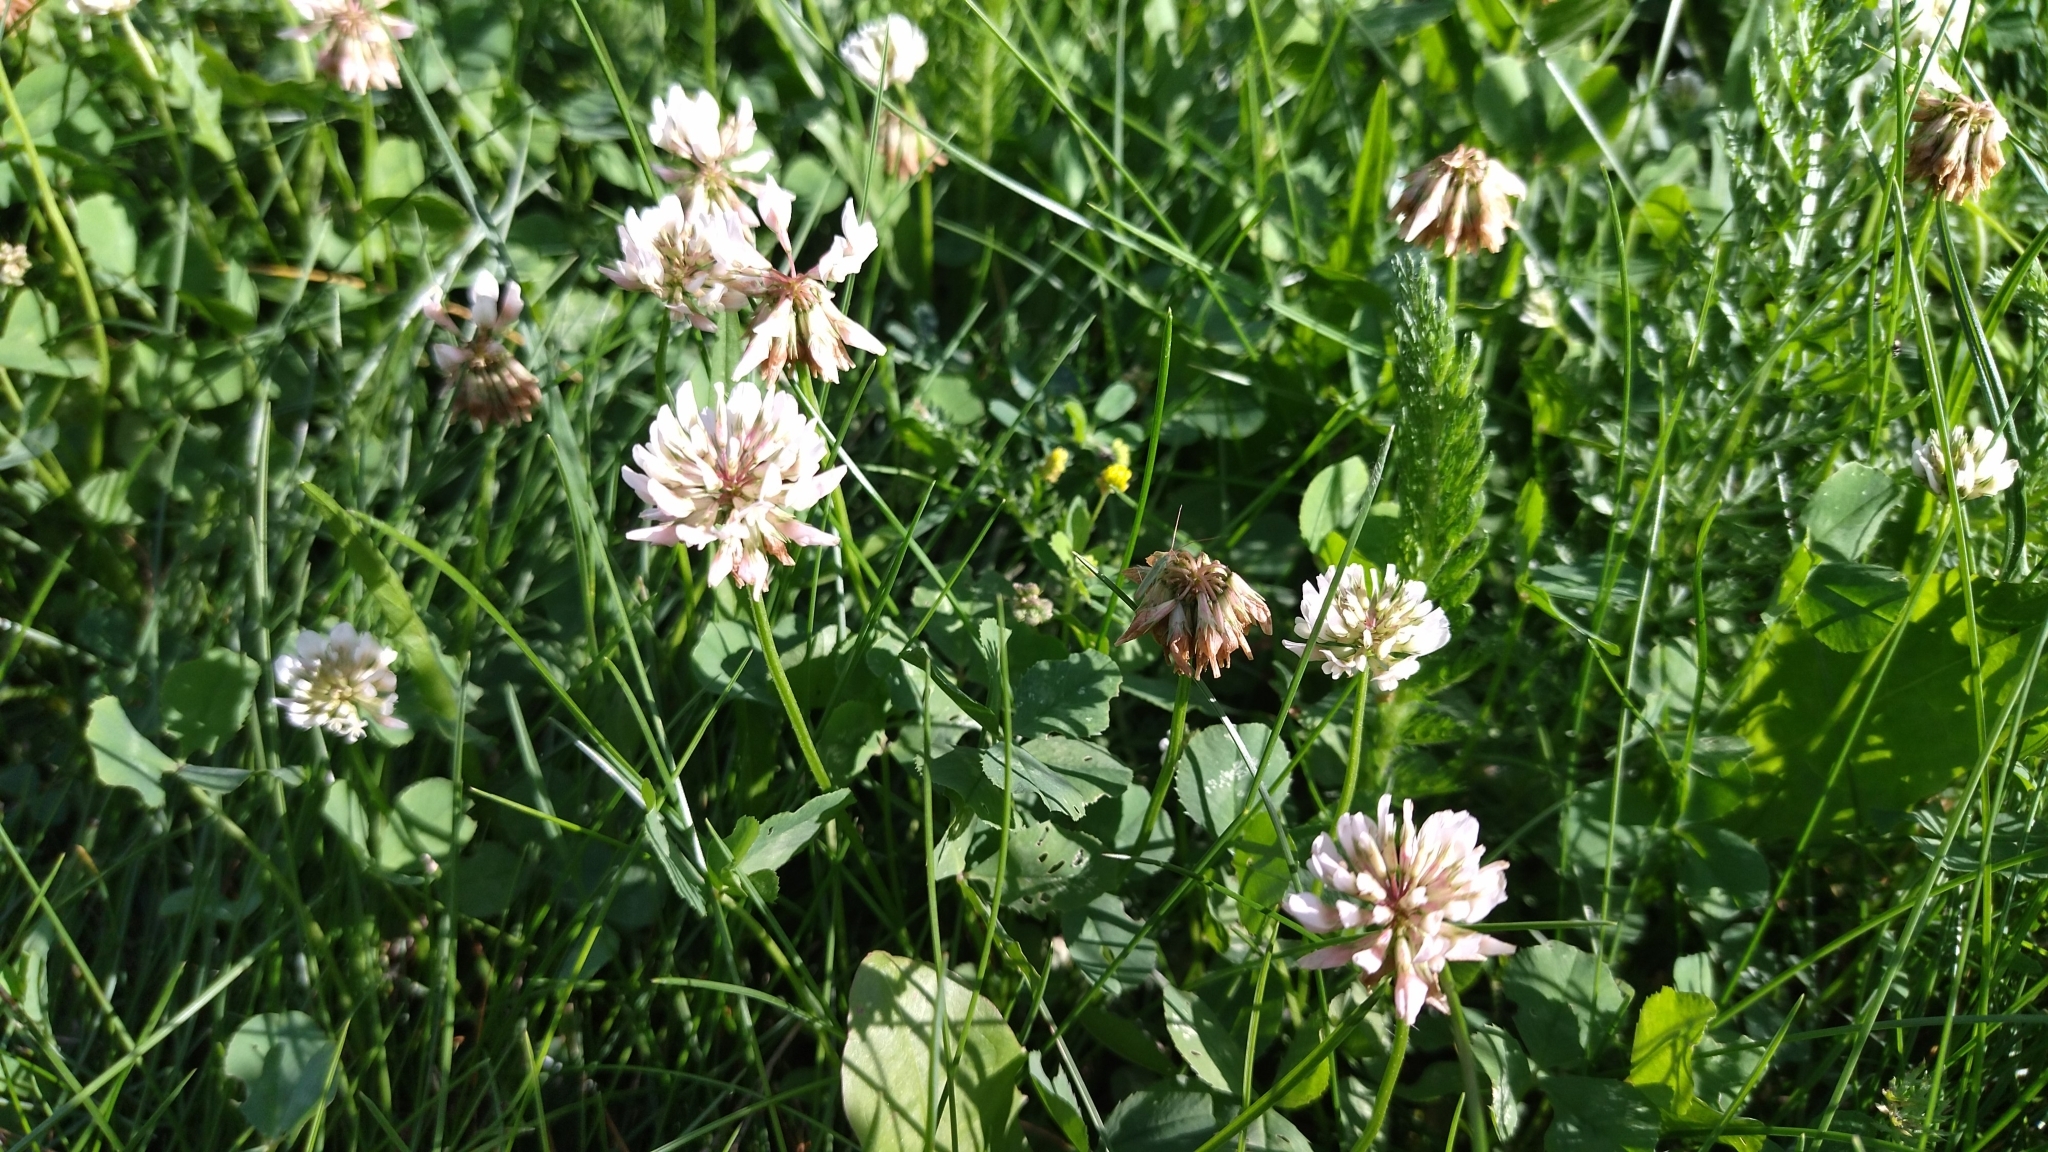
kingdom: Plantae
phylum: Tracheophyta
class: Magnoliopsida
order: Fabales
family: Fabaceae
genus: Trifolium
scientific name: Trifolium repens
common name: White clover
